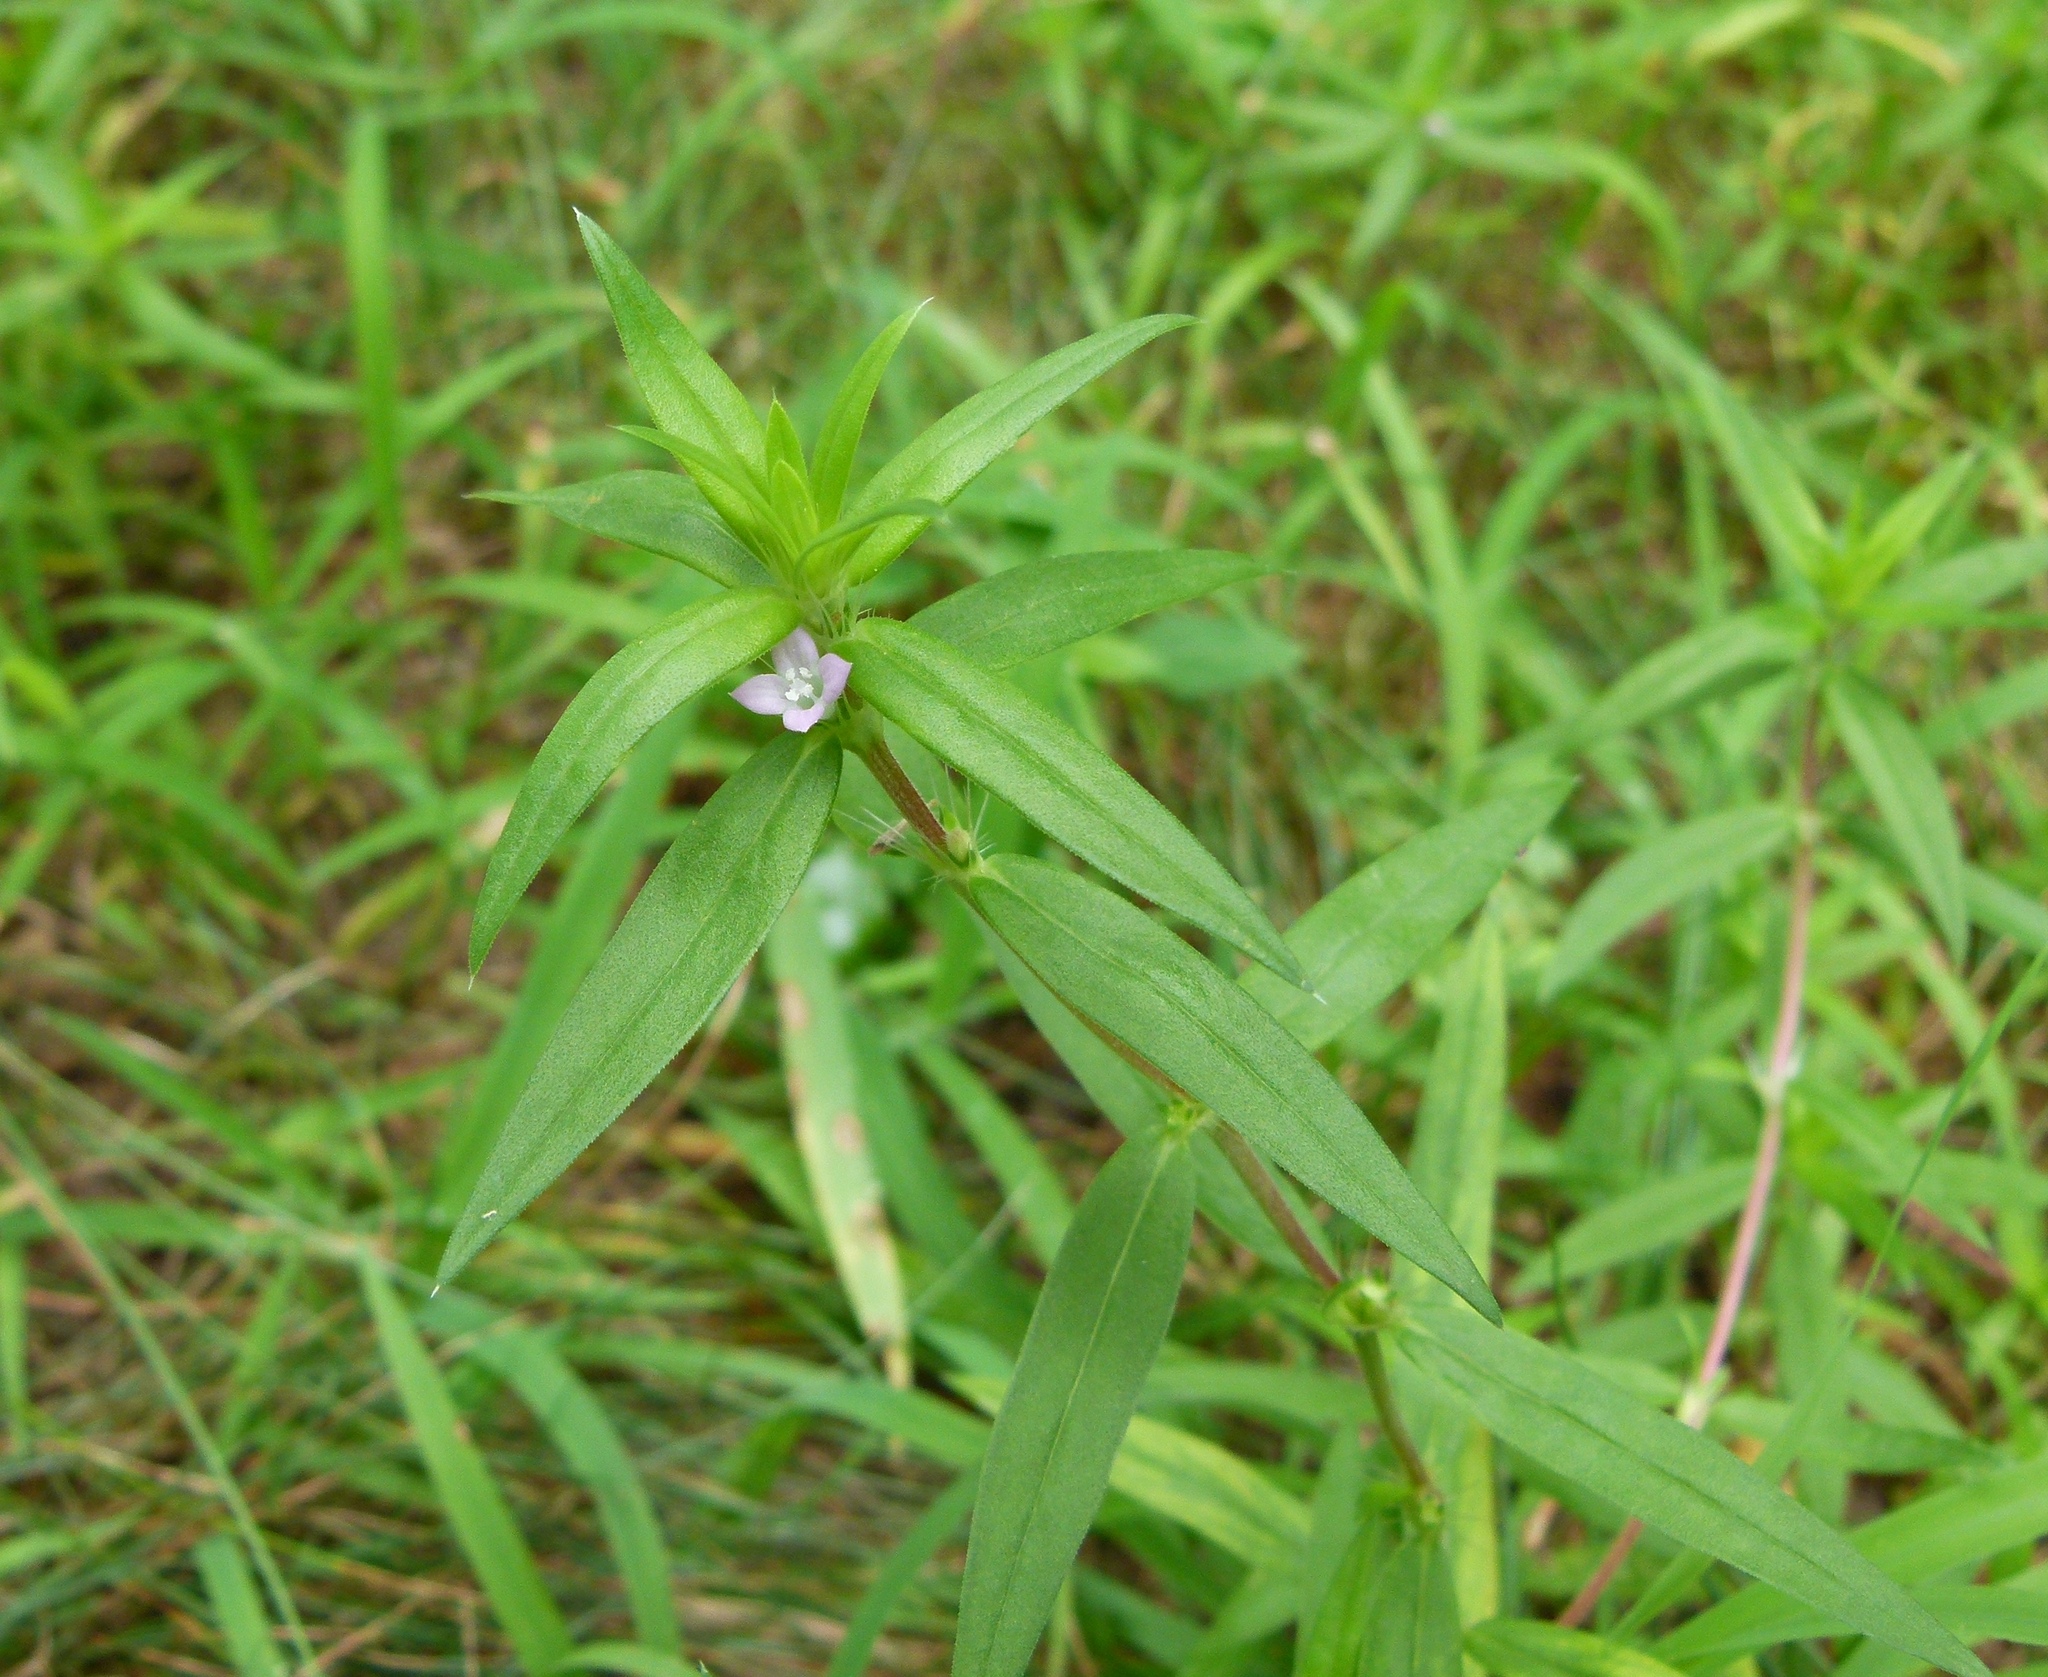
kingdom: Plantae
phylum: Tracheophyta
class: Magnoliopsida
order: Gentianales
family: Rubiaceae
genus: Hexasepalum
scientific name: Hexasepalum teres
